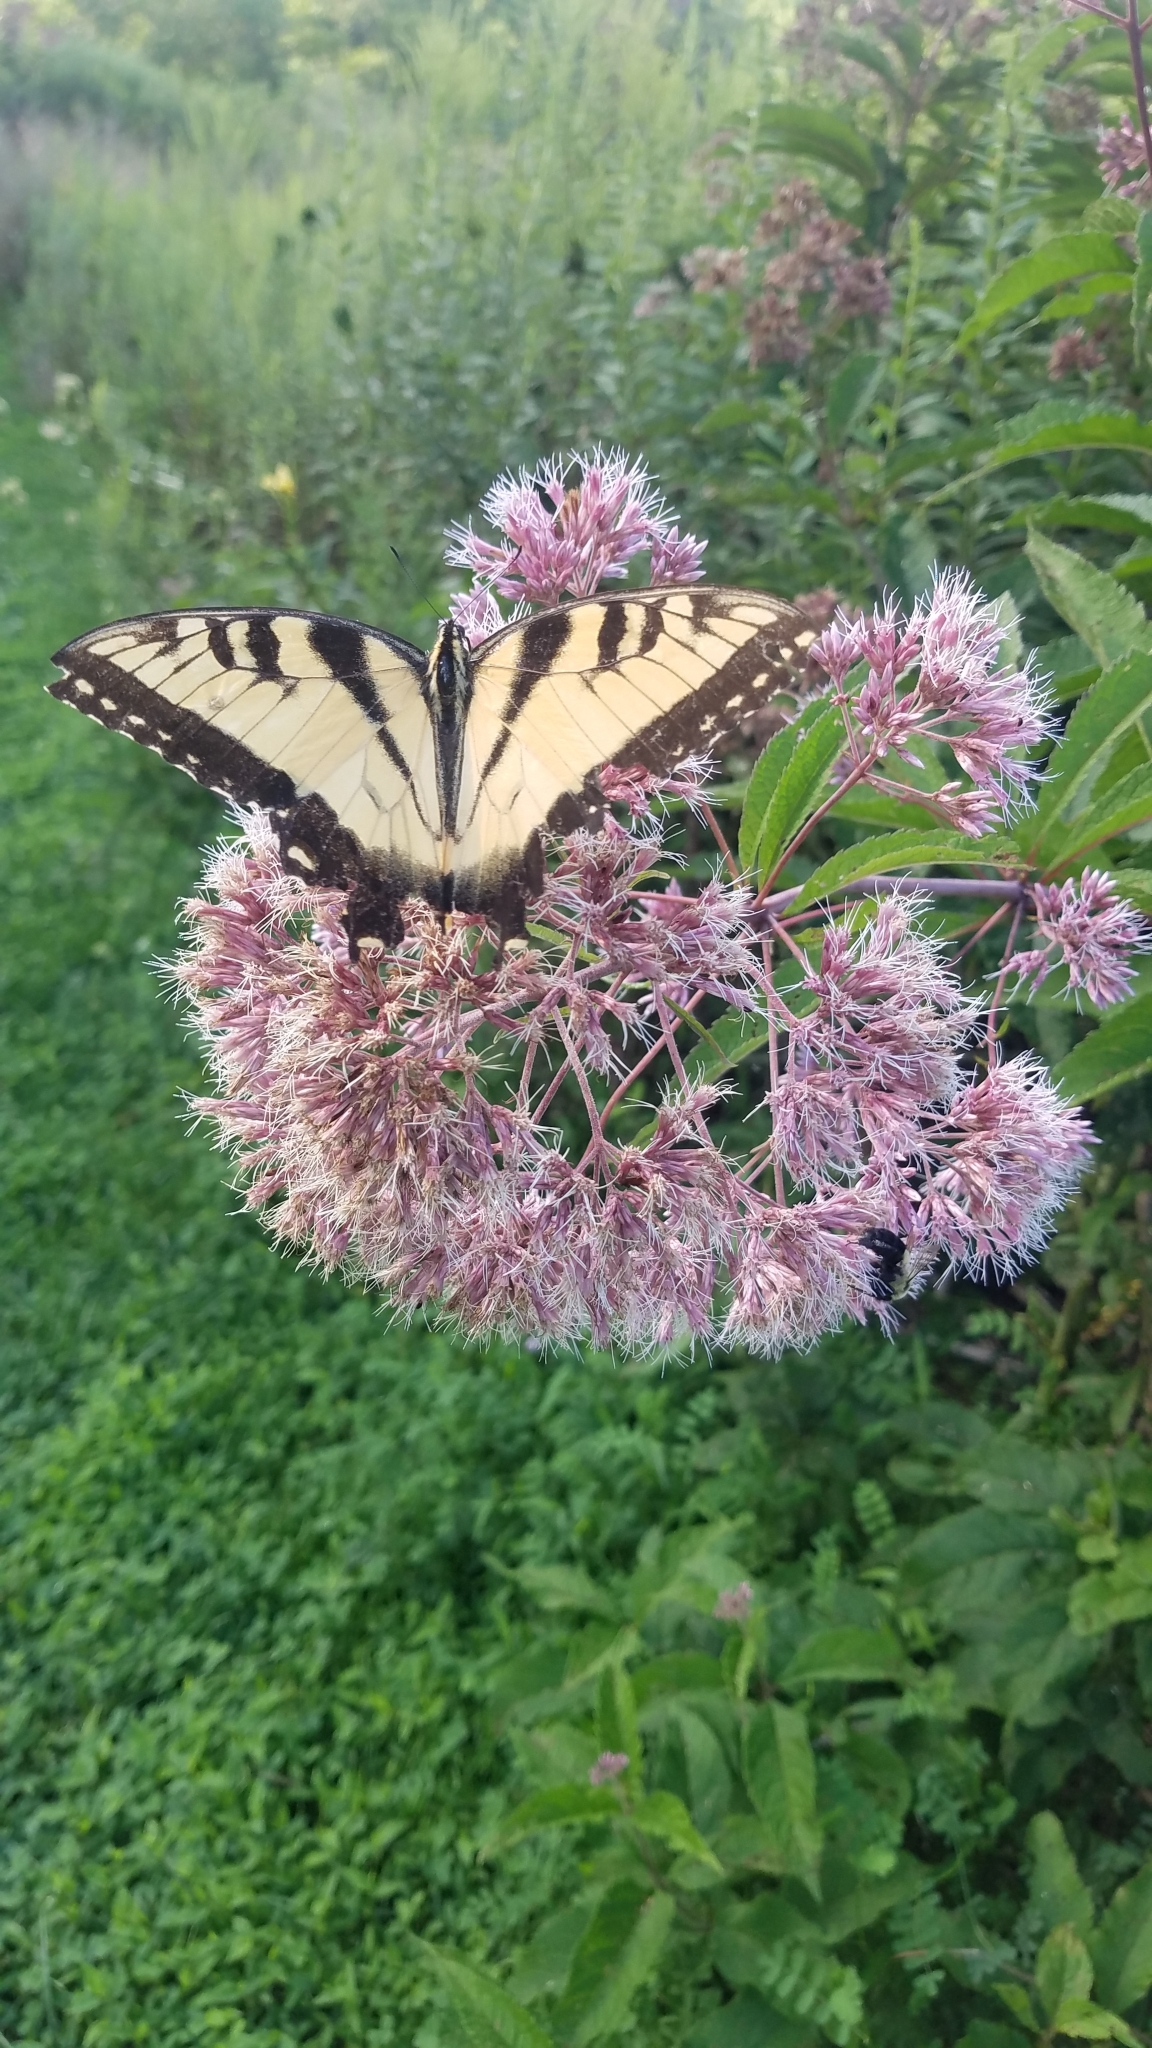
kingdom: Animalia
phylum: Arthropoda
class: Insecta
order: Lepidoptera
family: Papilionidae
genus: Papilio
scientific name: Papilio glaucus
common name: Tiger swallowtail
